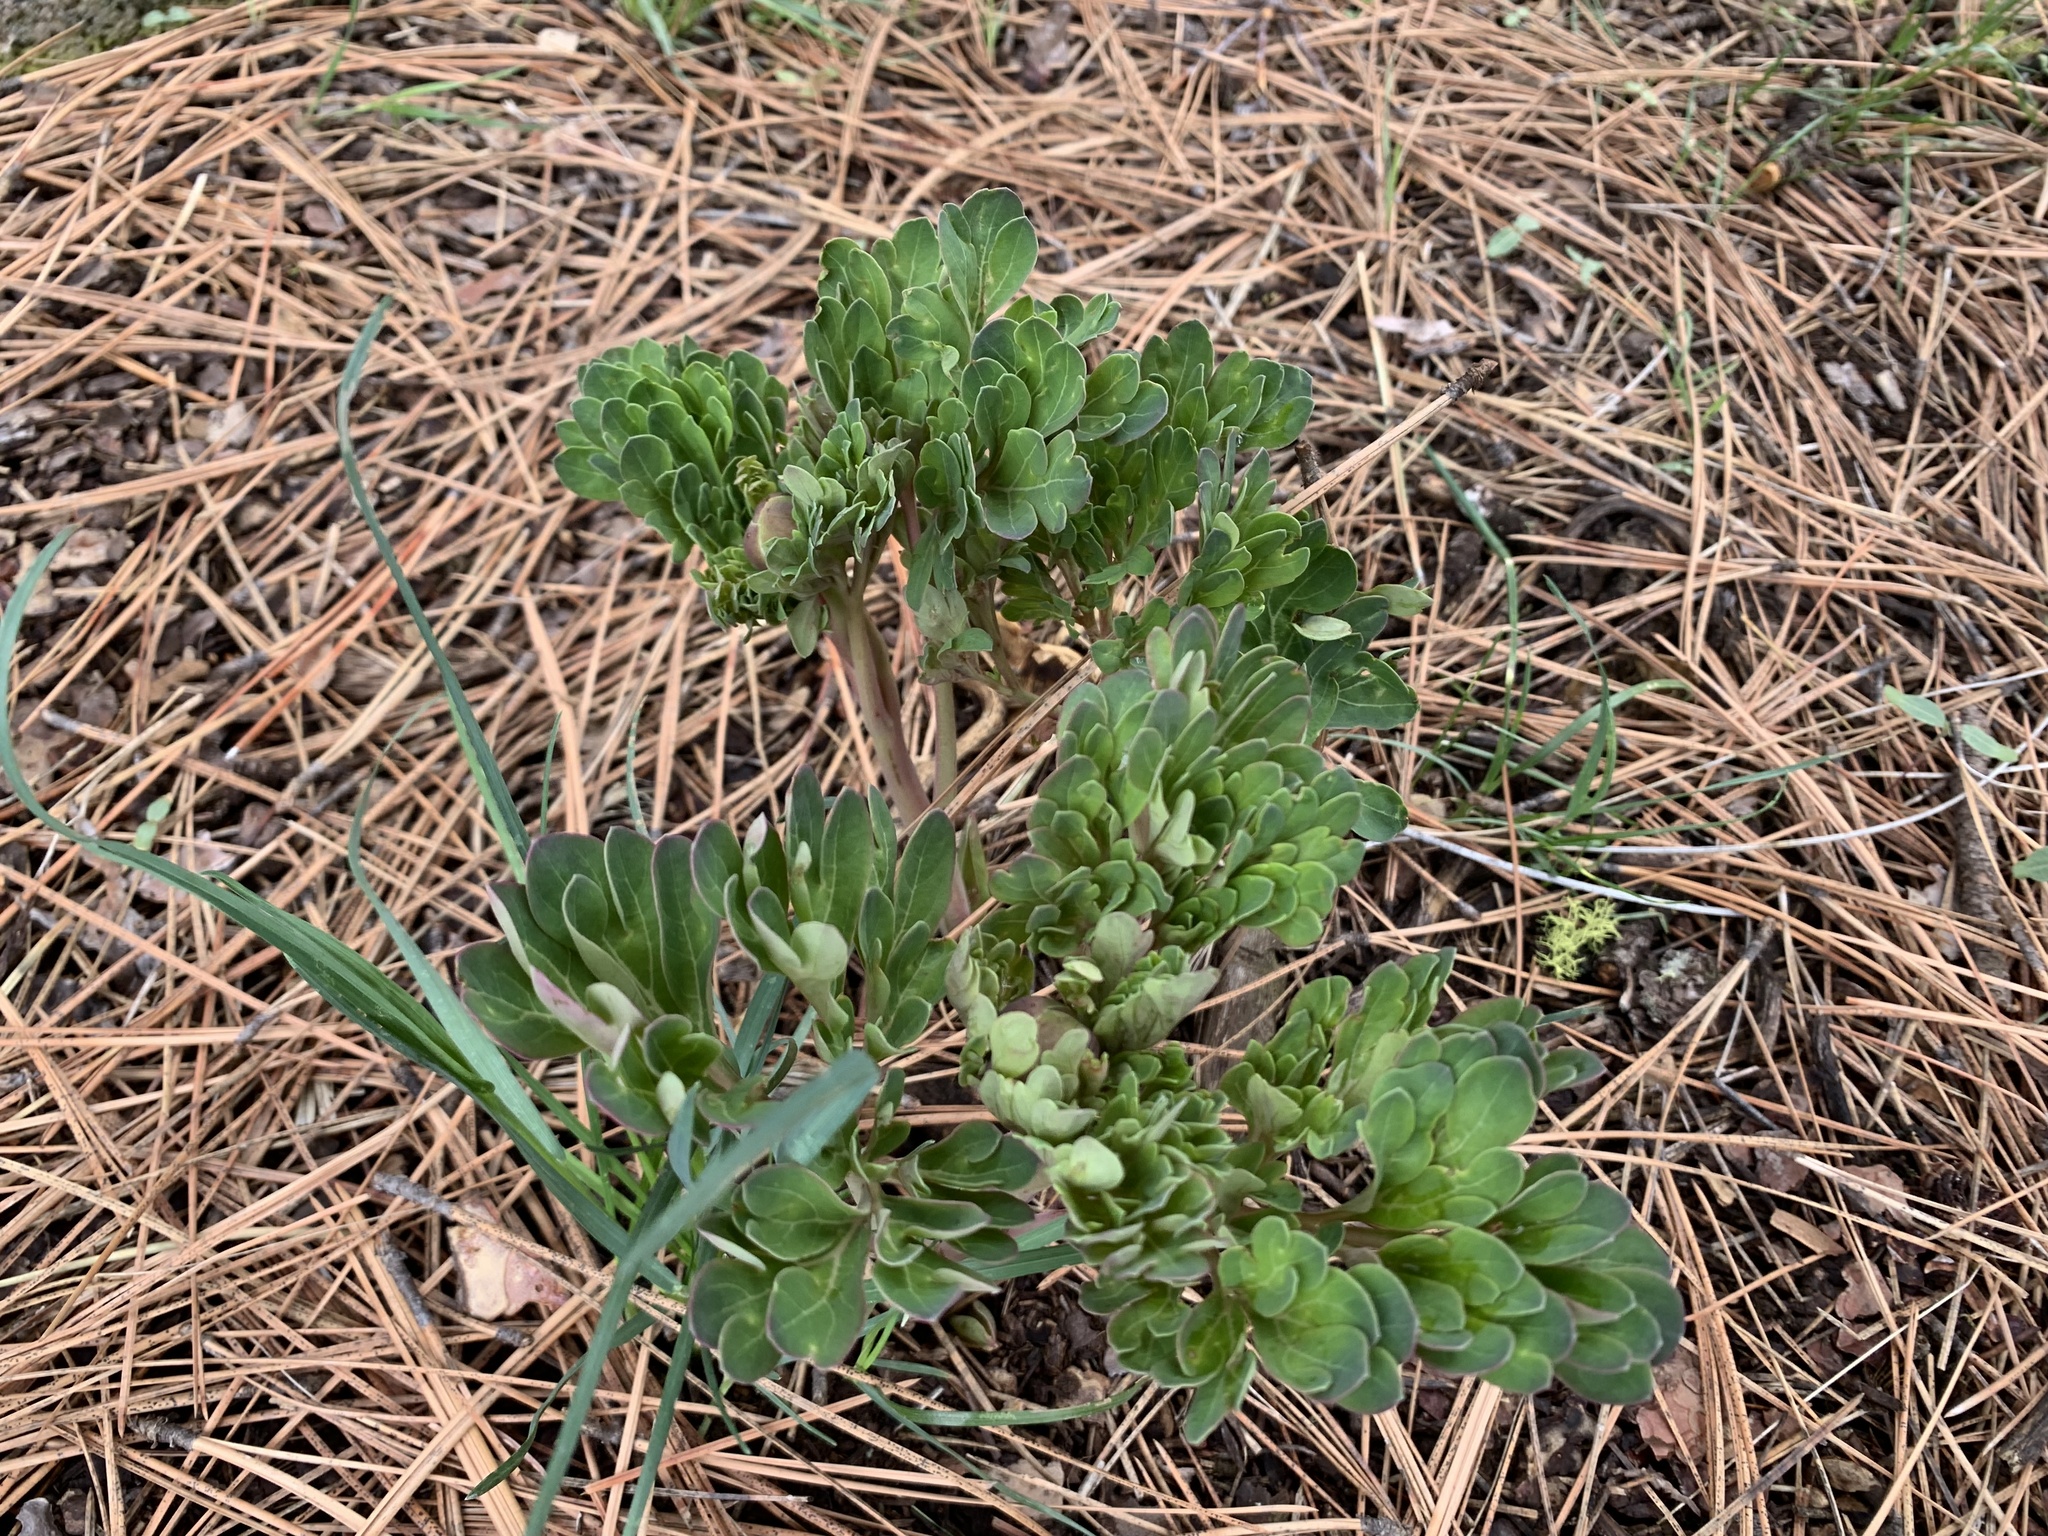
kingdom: Plantae
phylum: Tracheophyta
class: Magnoliopsida
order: Saxifragales
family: Paeoniaceae
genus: Paeonia
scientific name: Paeonia brownii
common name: Brown's peony
